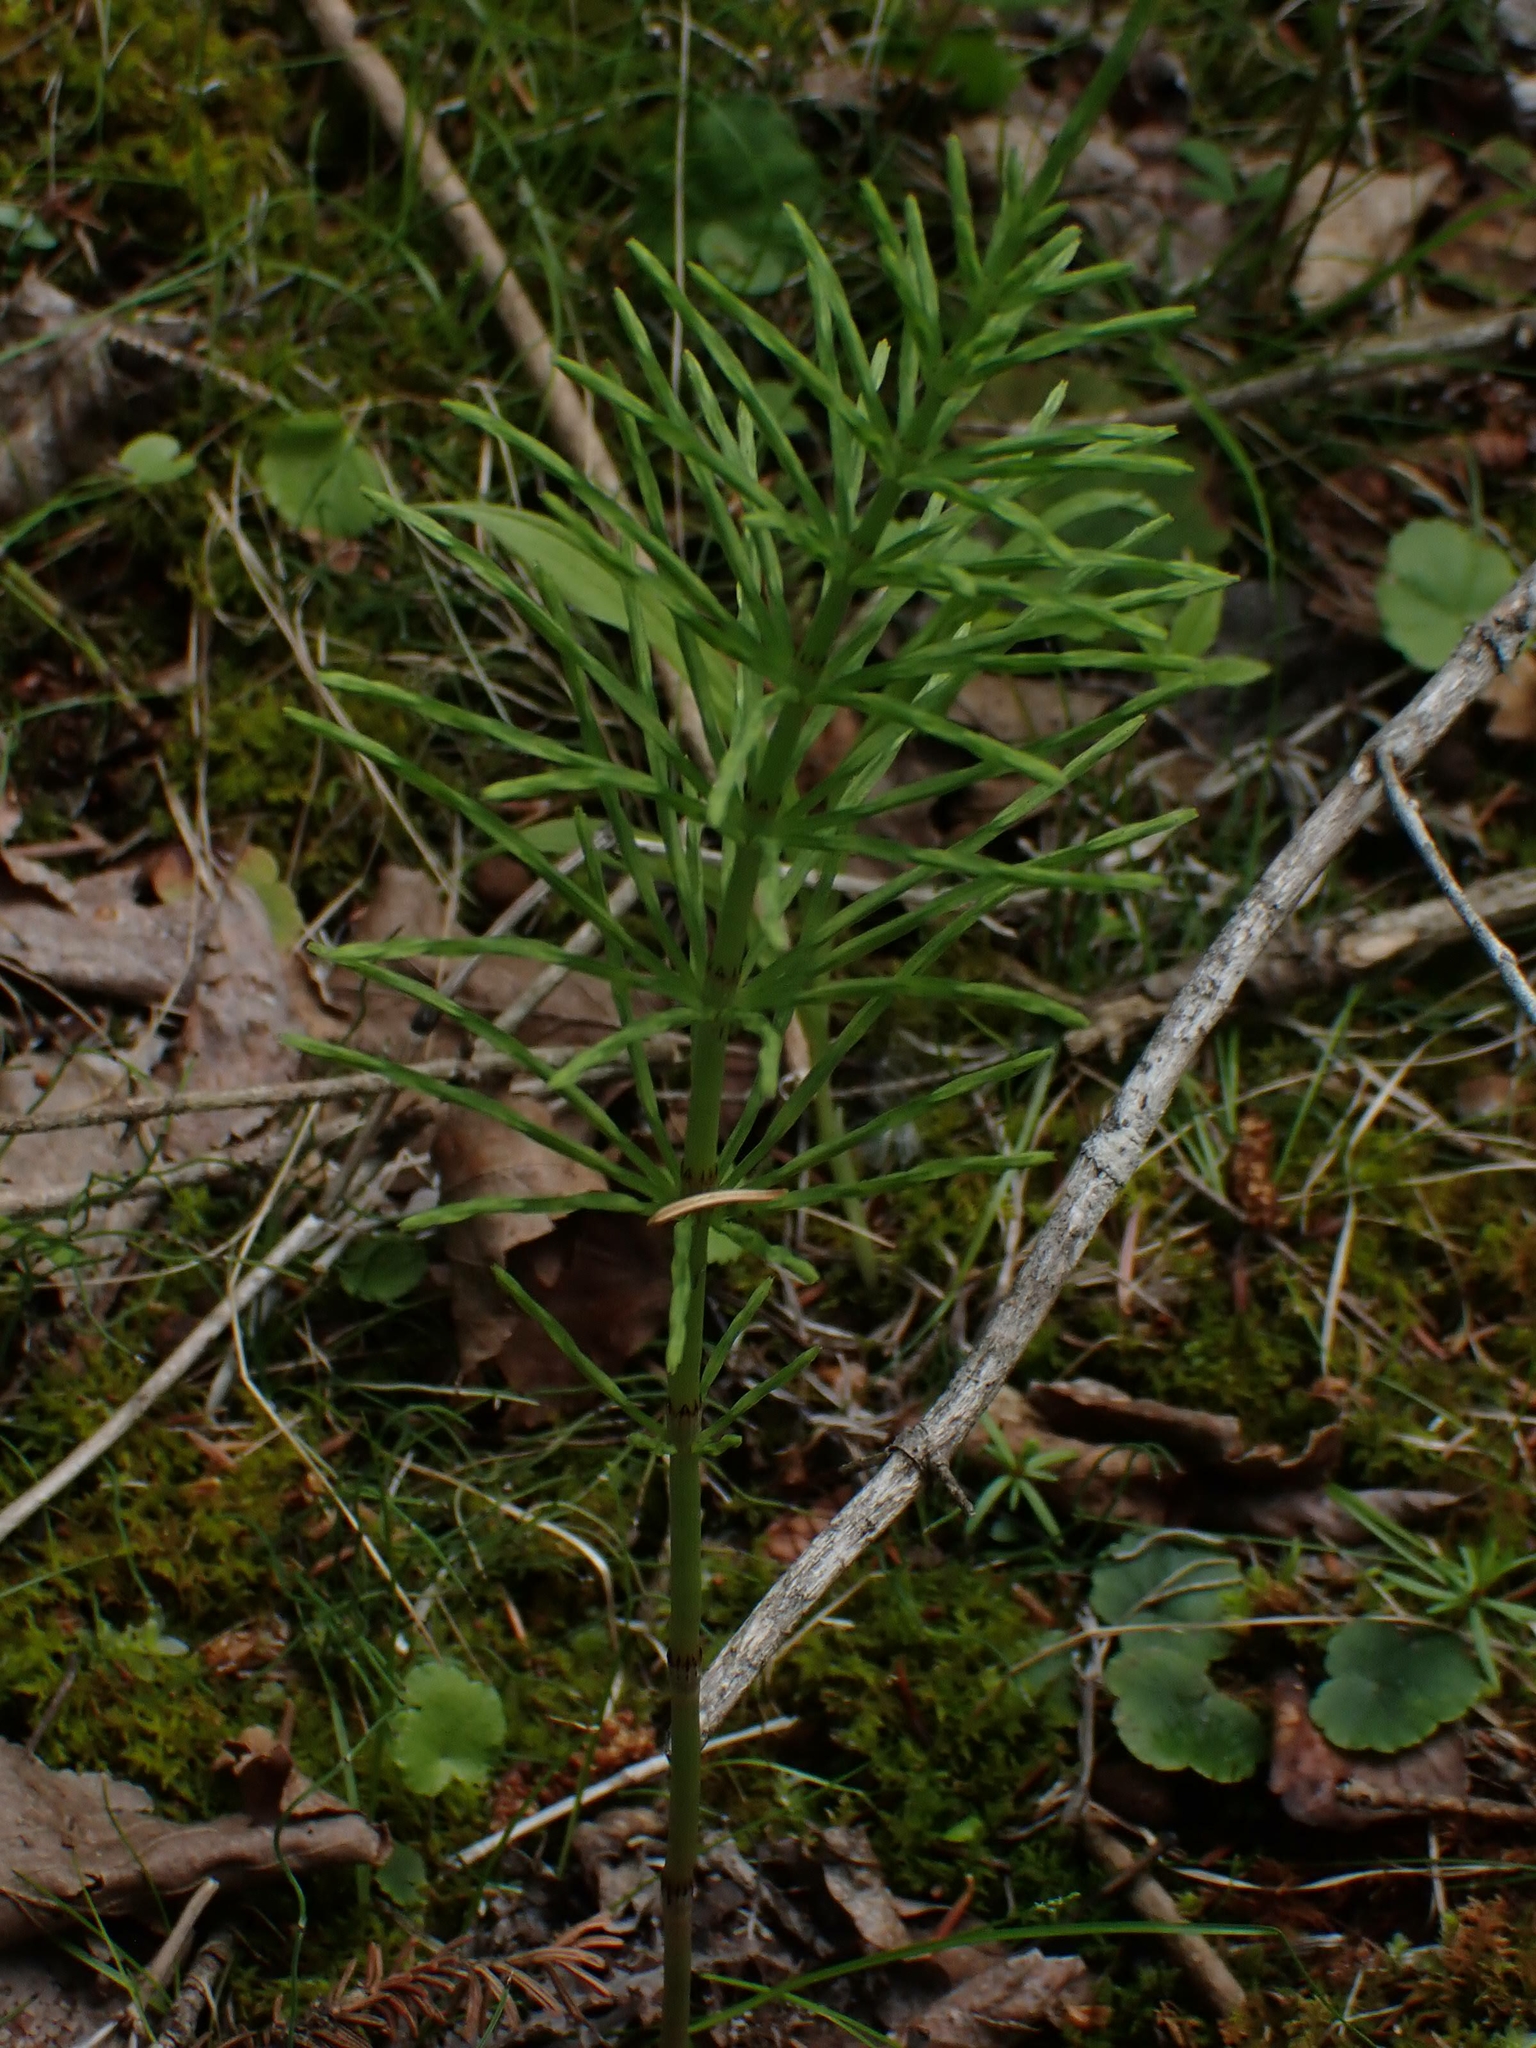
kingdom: Plantae
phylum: Tracheophyta
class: Polypodiopsida
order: Equisetales
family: Equisetaceae
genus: Equisetum
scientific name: Equisetum arvense
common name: Field horsetail
